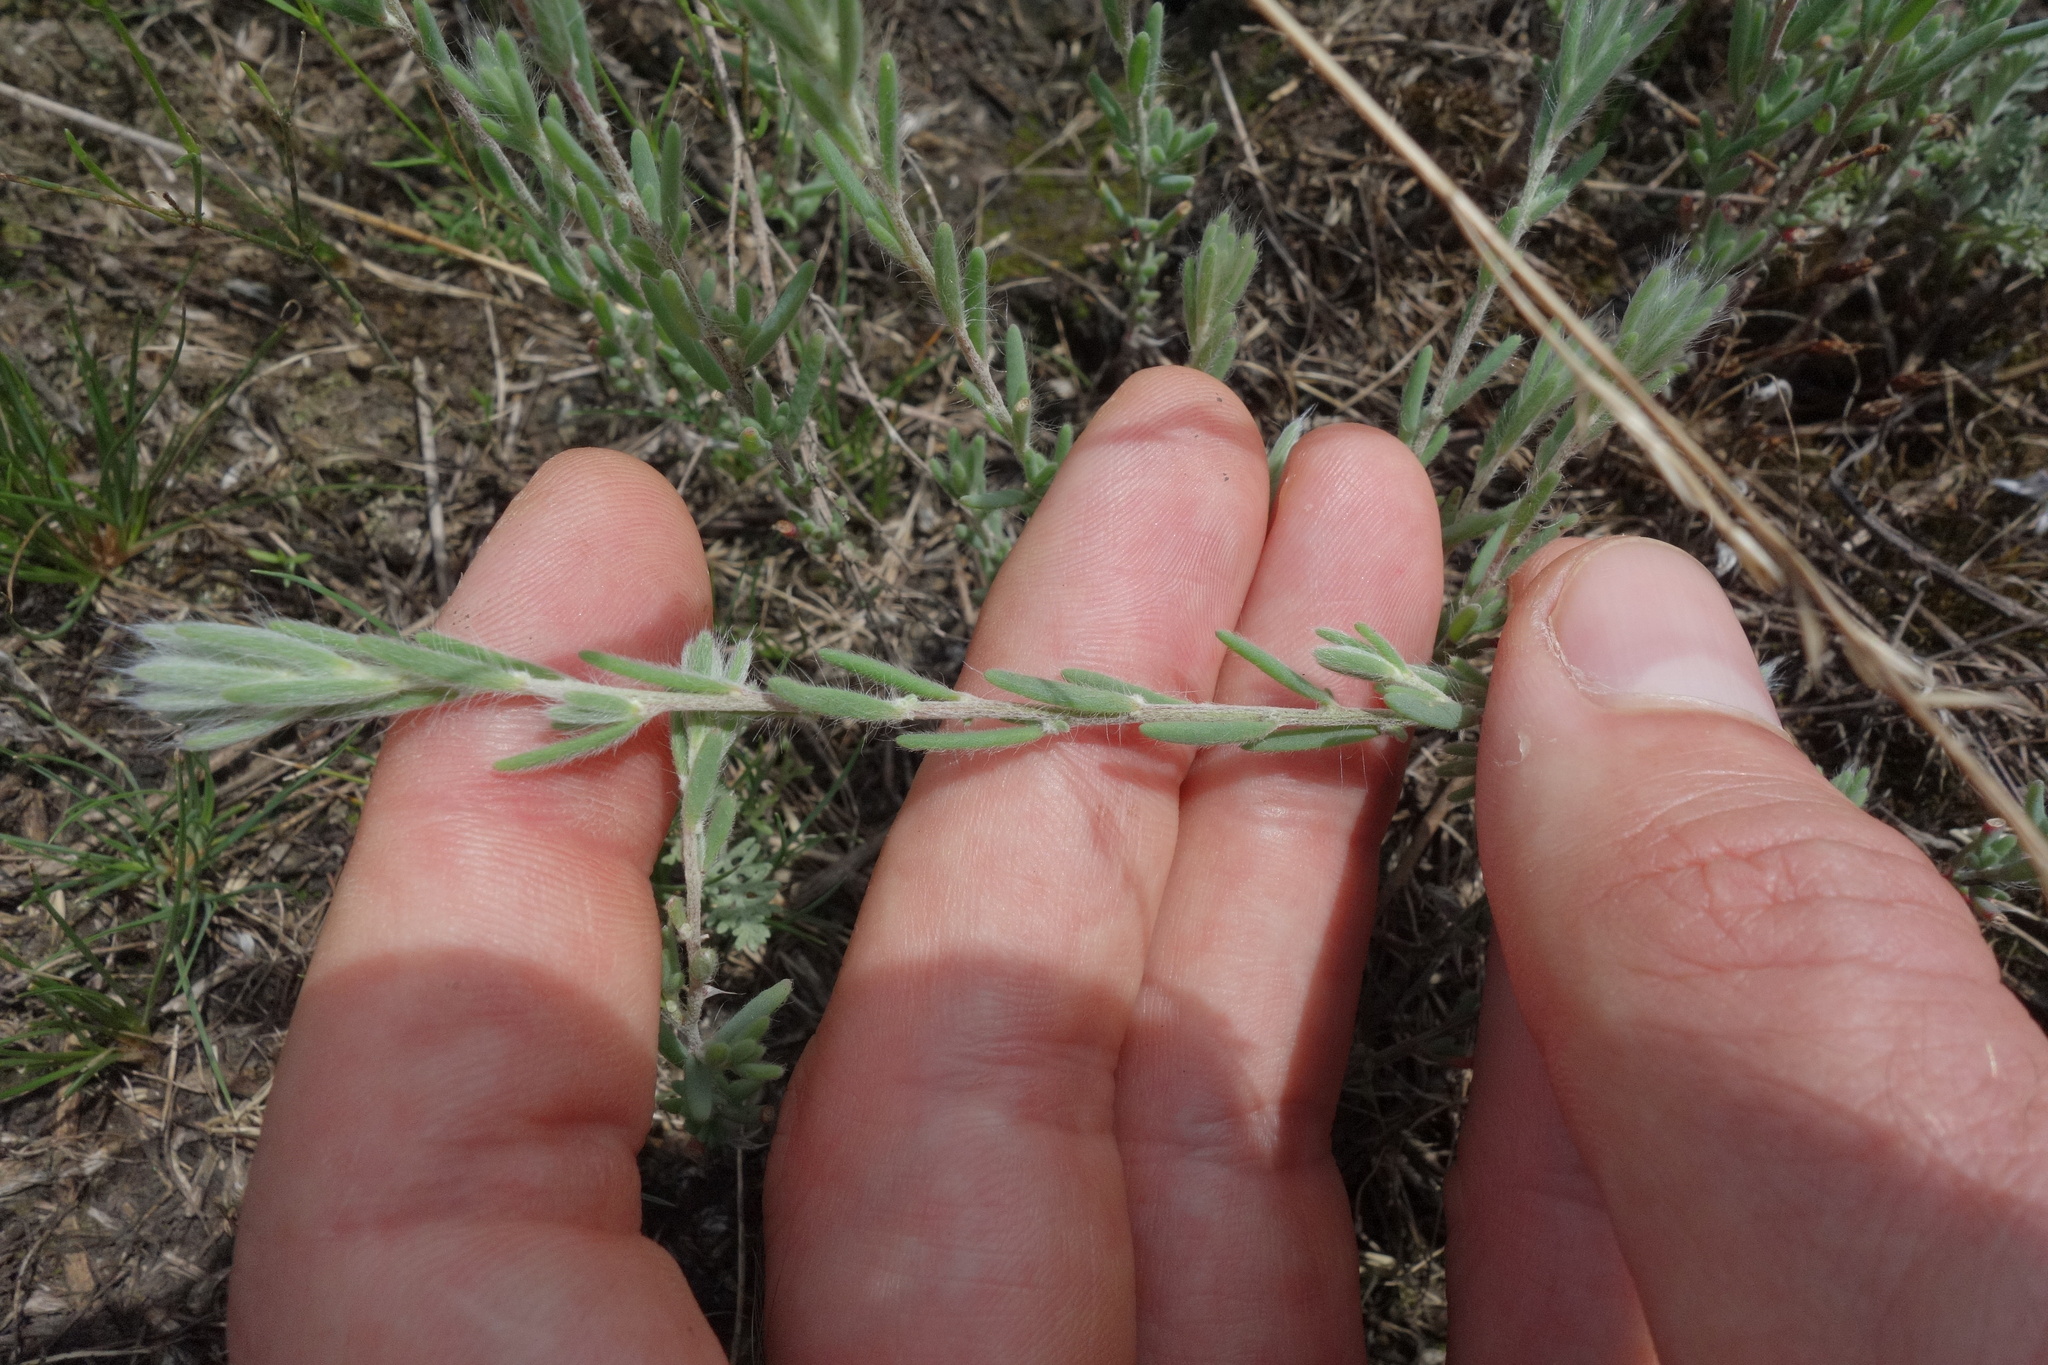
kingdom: Plantae
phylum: Tracheophyta
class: Magnoliopsida
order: Caryophyllales
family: Amaranthaceae
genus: Sedobassia
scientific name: Sedobassia sedoides
